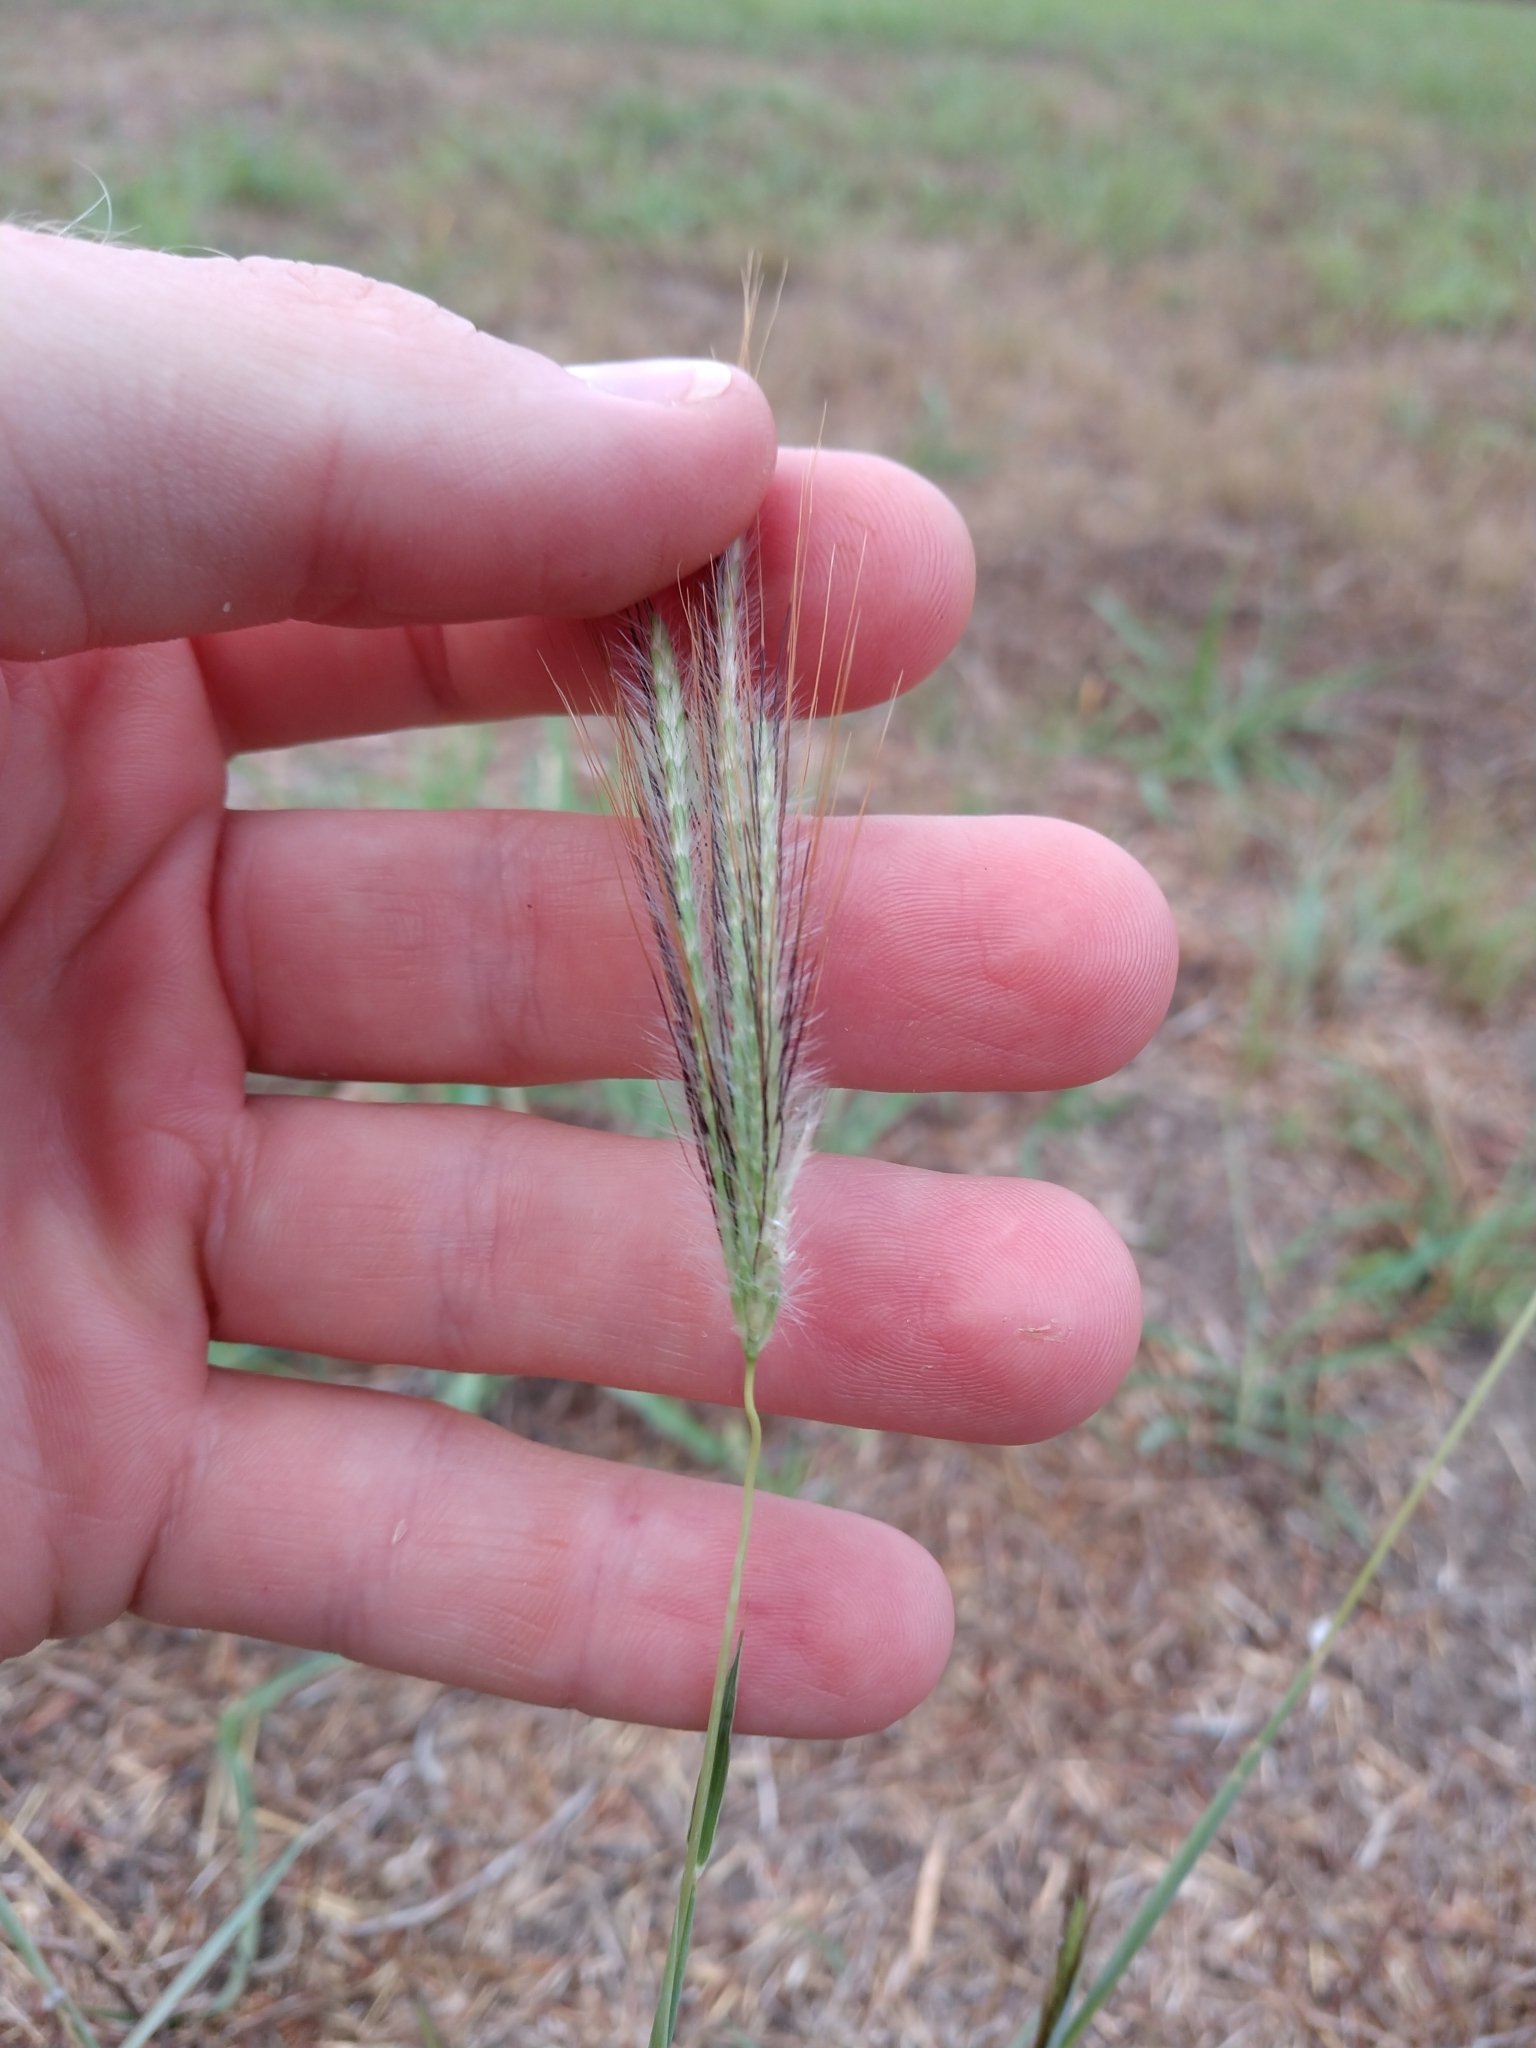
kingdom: Plantae
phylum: Tracheophyta
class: Liliopsida
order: Poales
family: Poaceae
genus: Dichanthium
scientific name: Dichanthium sericeum
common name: Silky bluestem
